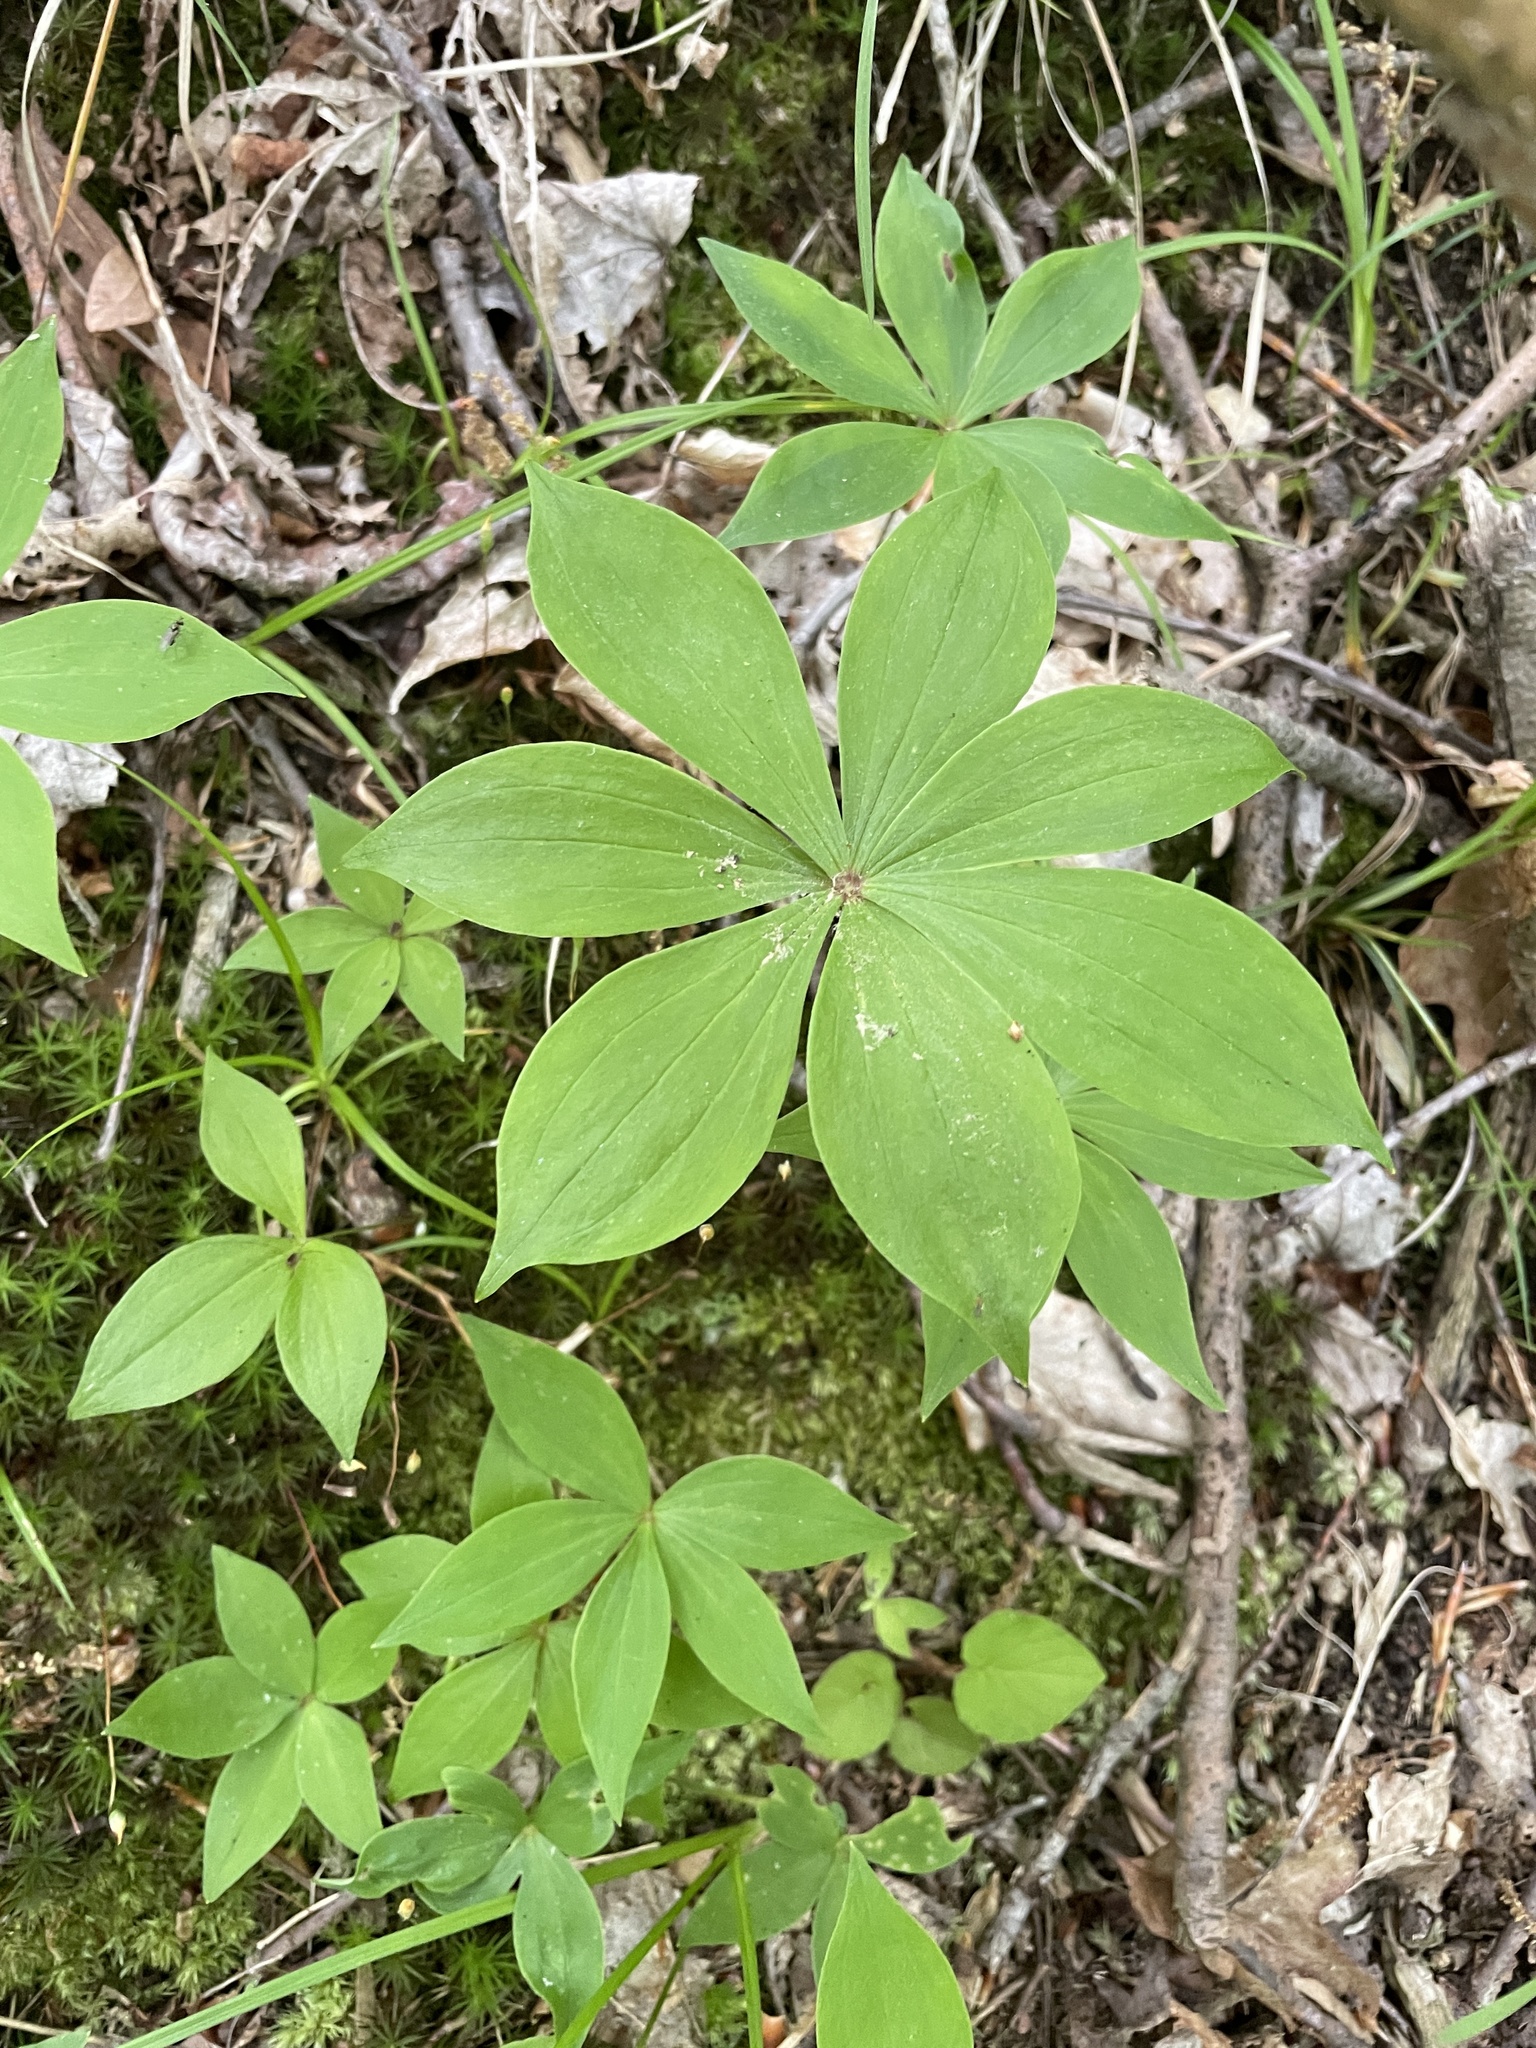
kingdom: Plantae
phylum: Tracheophyta
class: Liliopsida
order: Liliales
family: Liliaceae
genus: Medeola
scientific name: Medeola virginiana
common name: Indian cucumber-root
